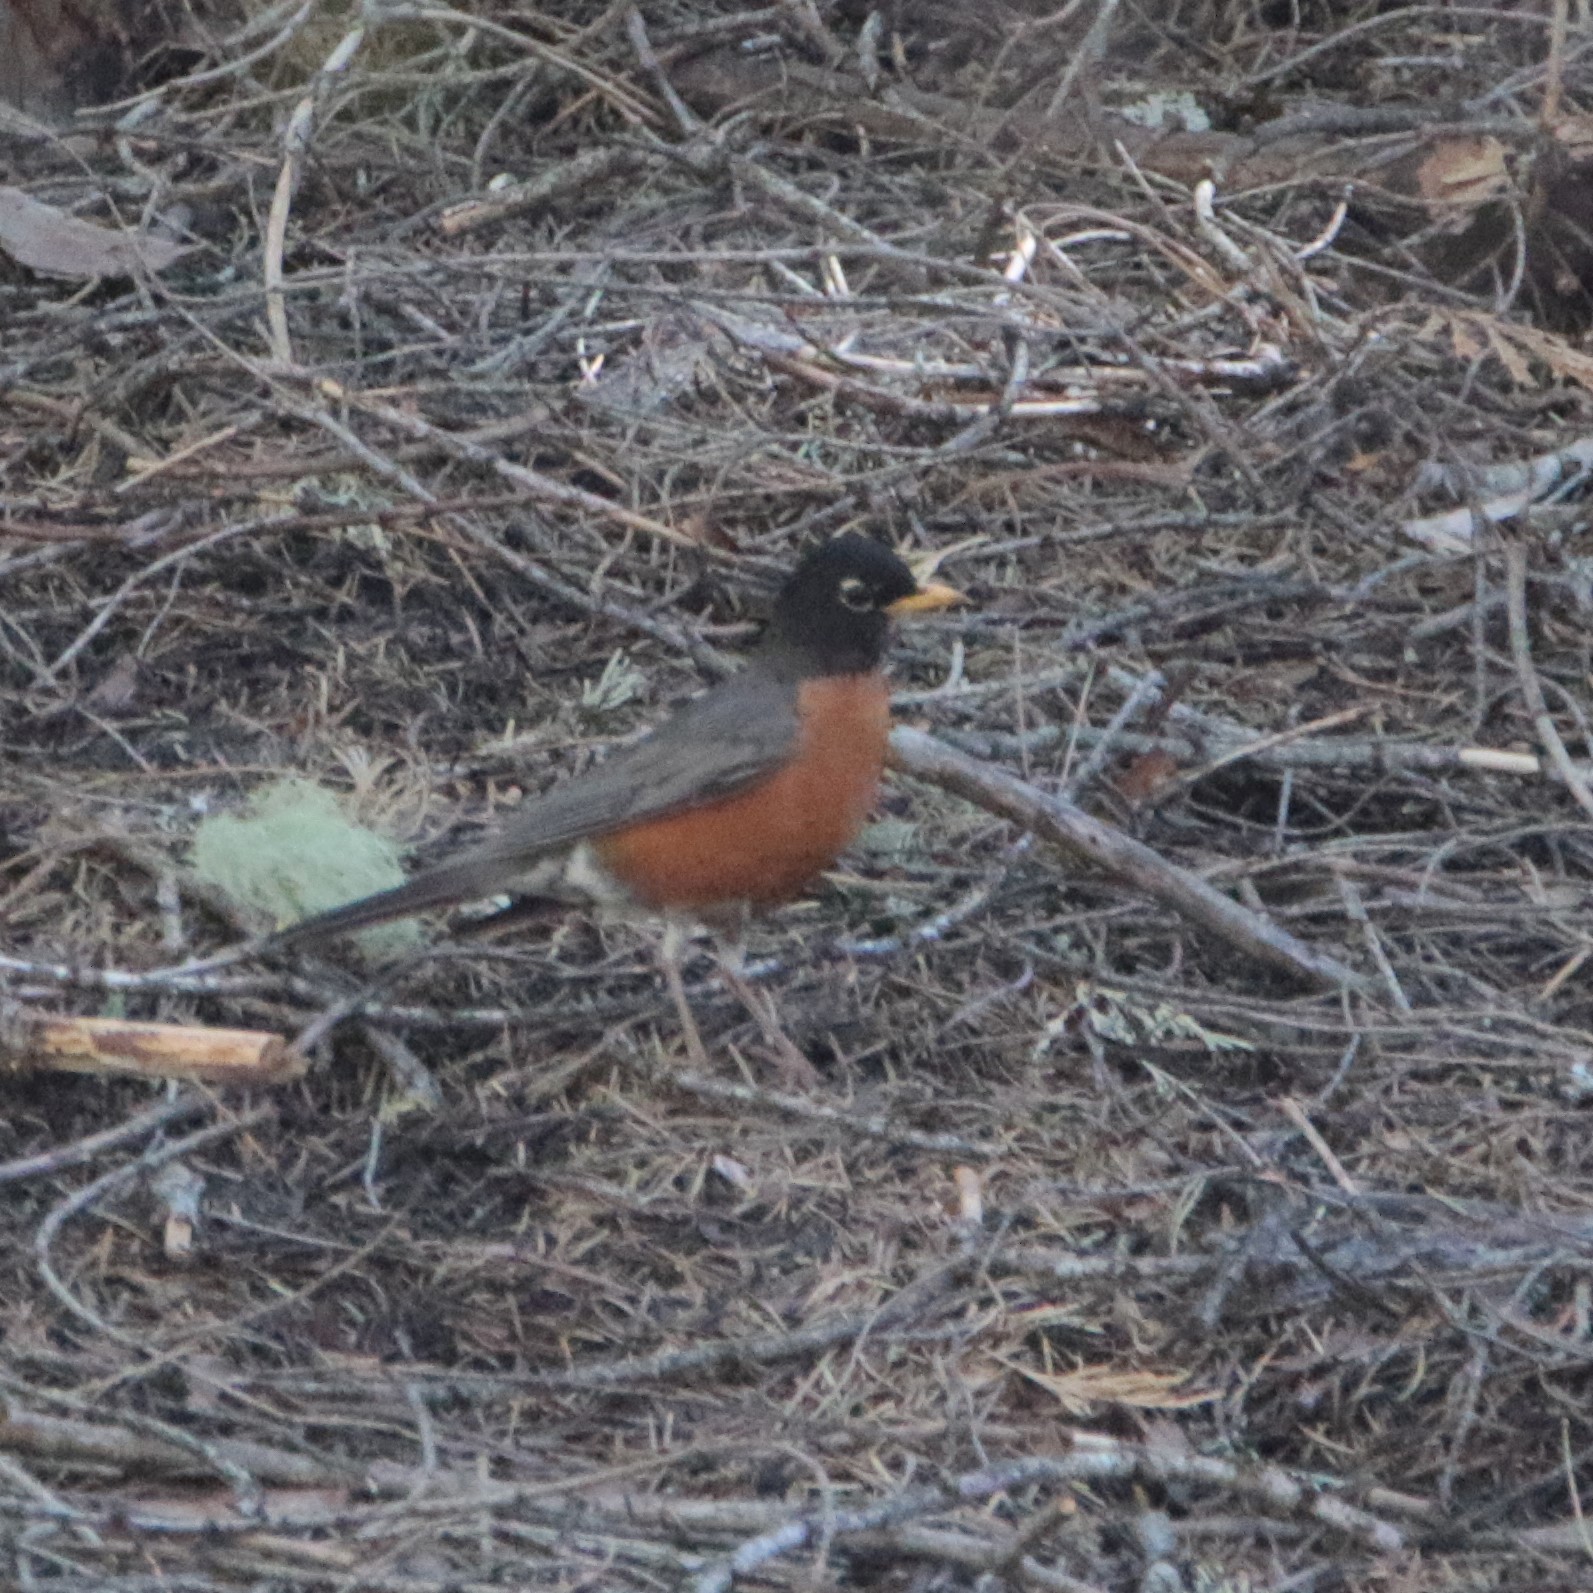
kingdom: Animalia
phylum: Chordata
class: Aves
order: Passeriformes
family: Turdidae
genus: Turdus
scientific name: Turdus migratorius
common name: American robin
